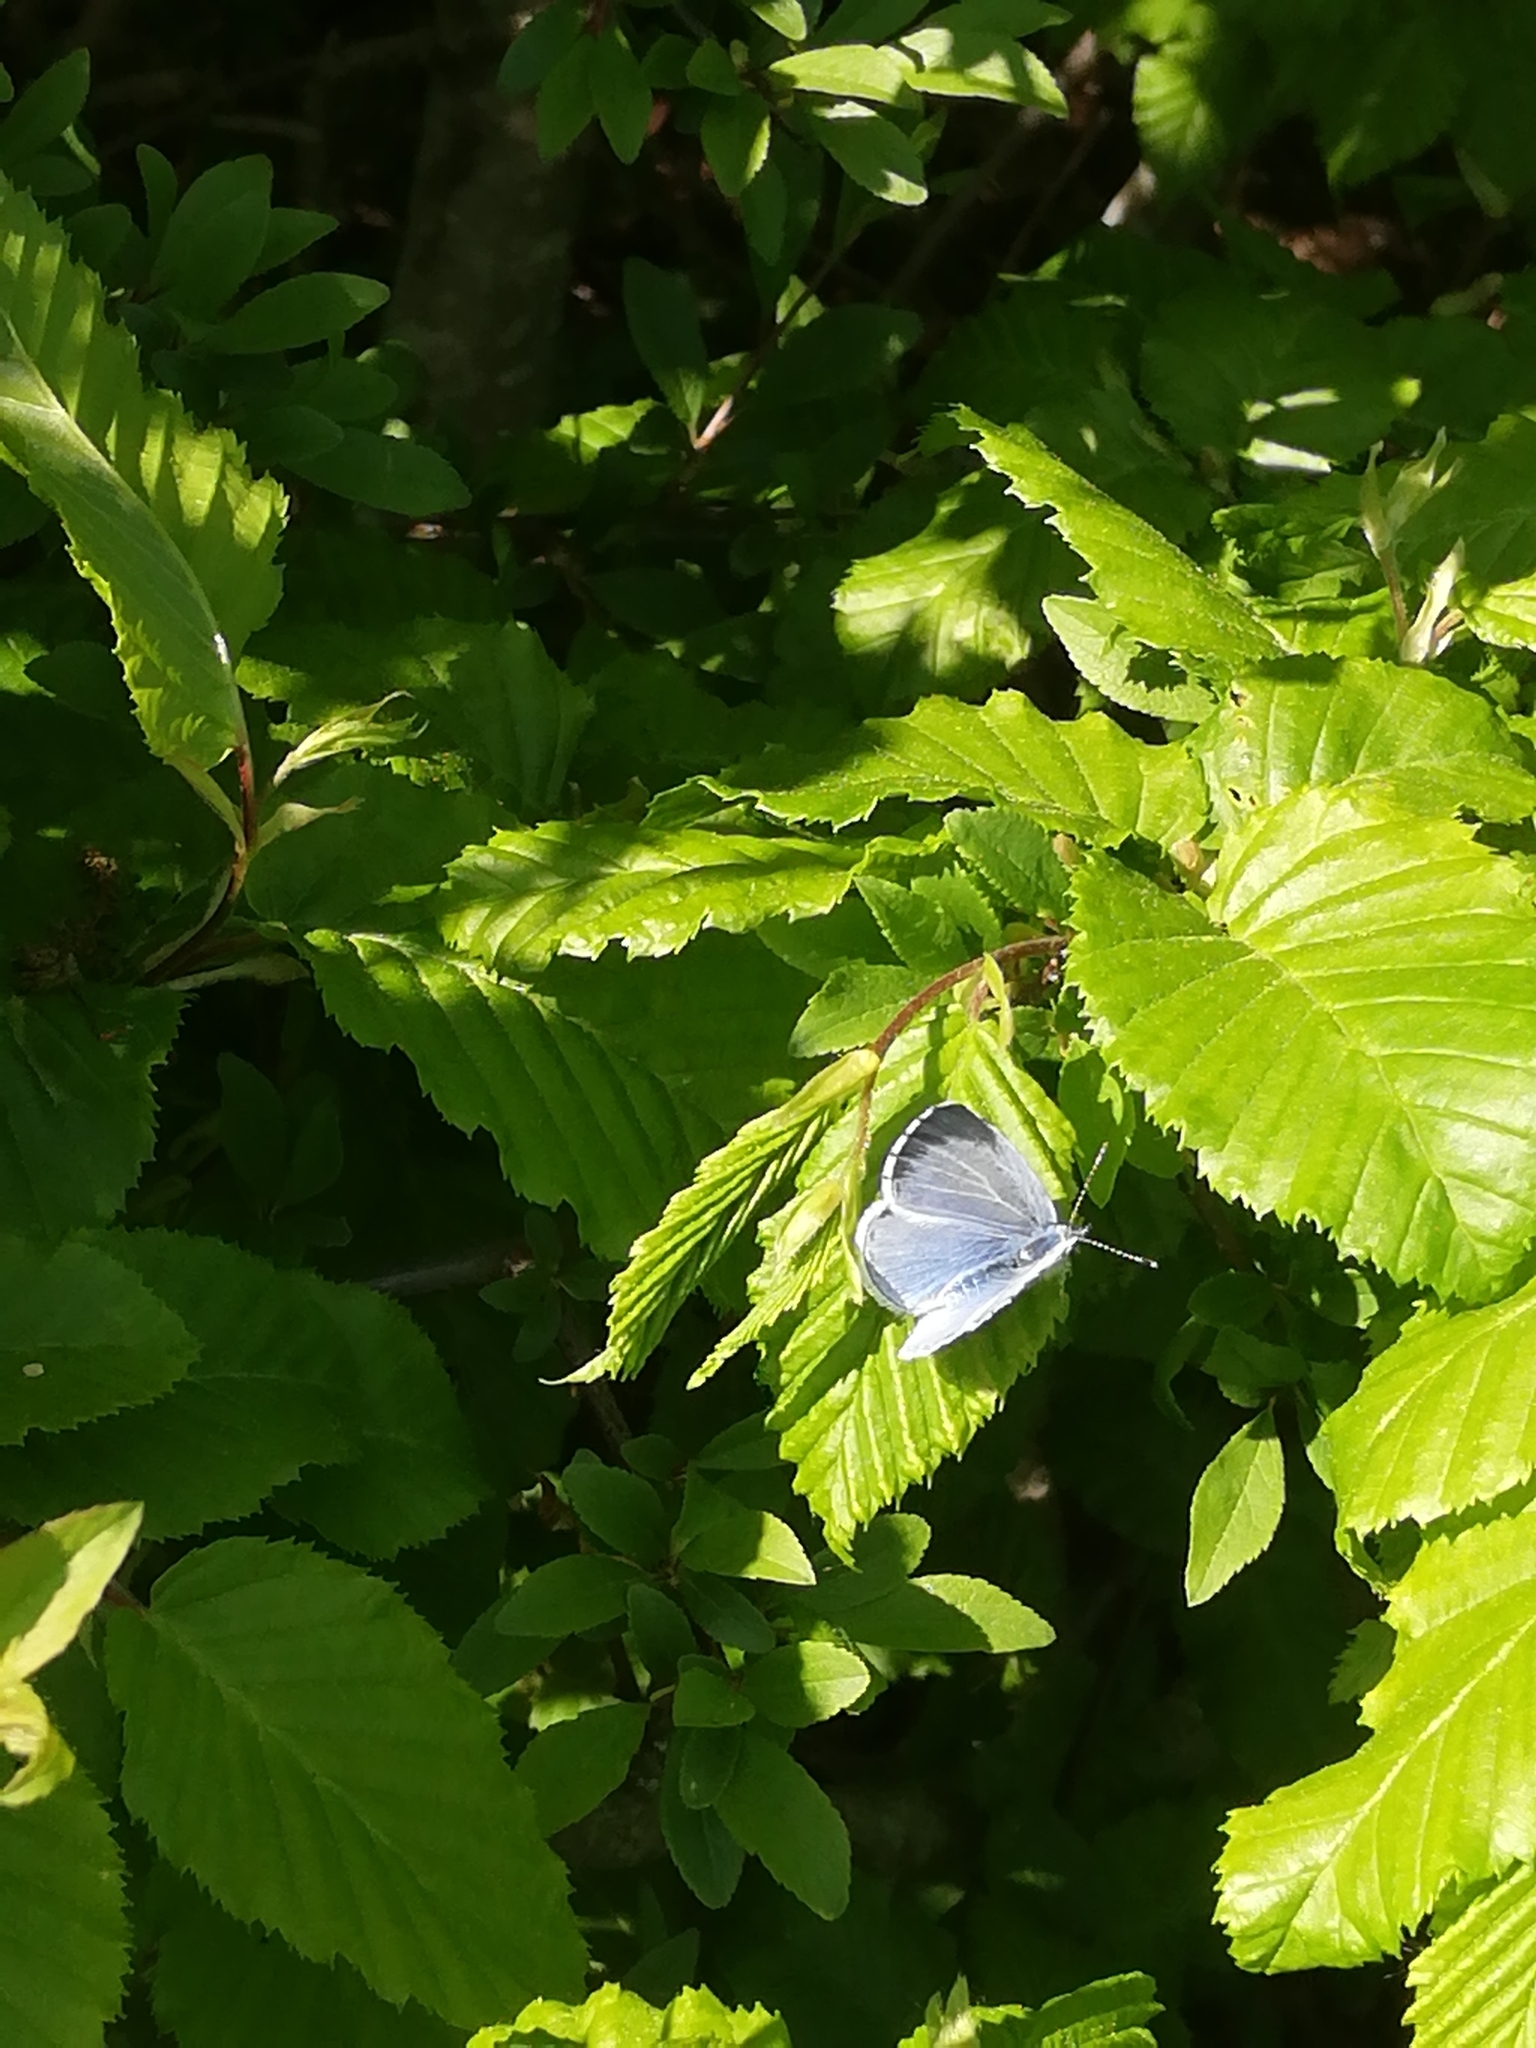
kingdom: Animalia
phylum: Arthropoda
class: Insecta
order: Lepidoptera
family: Lycaenidae
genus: Celastrina
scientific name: Celastrina argiolus
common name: Holly blue
